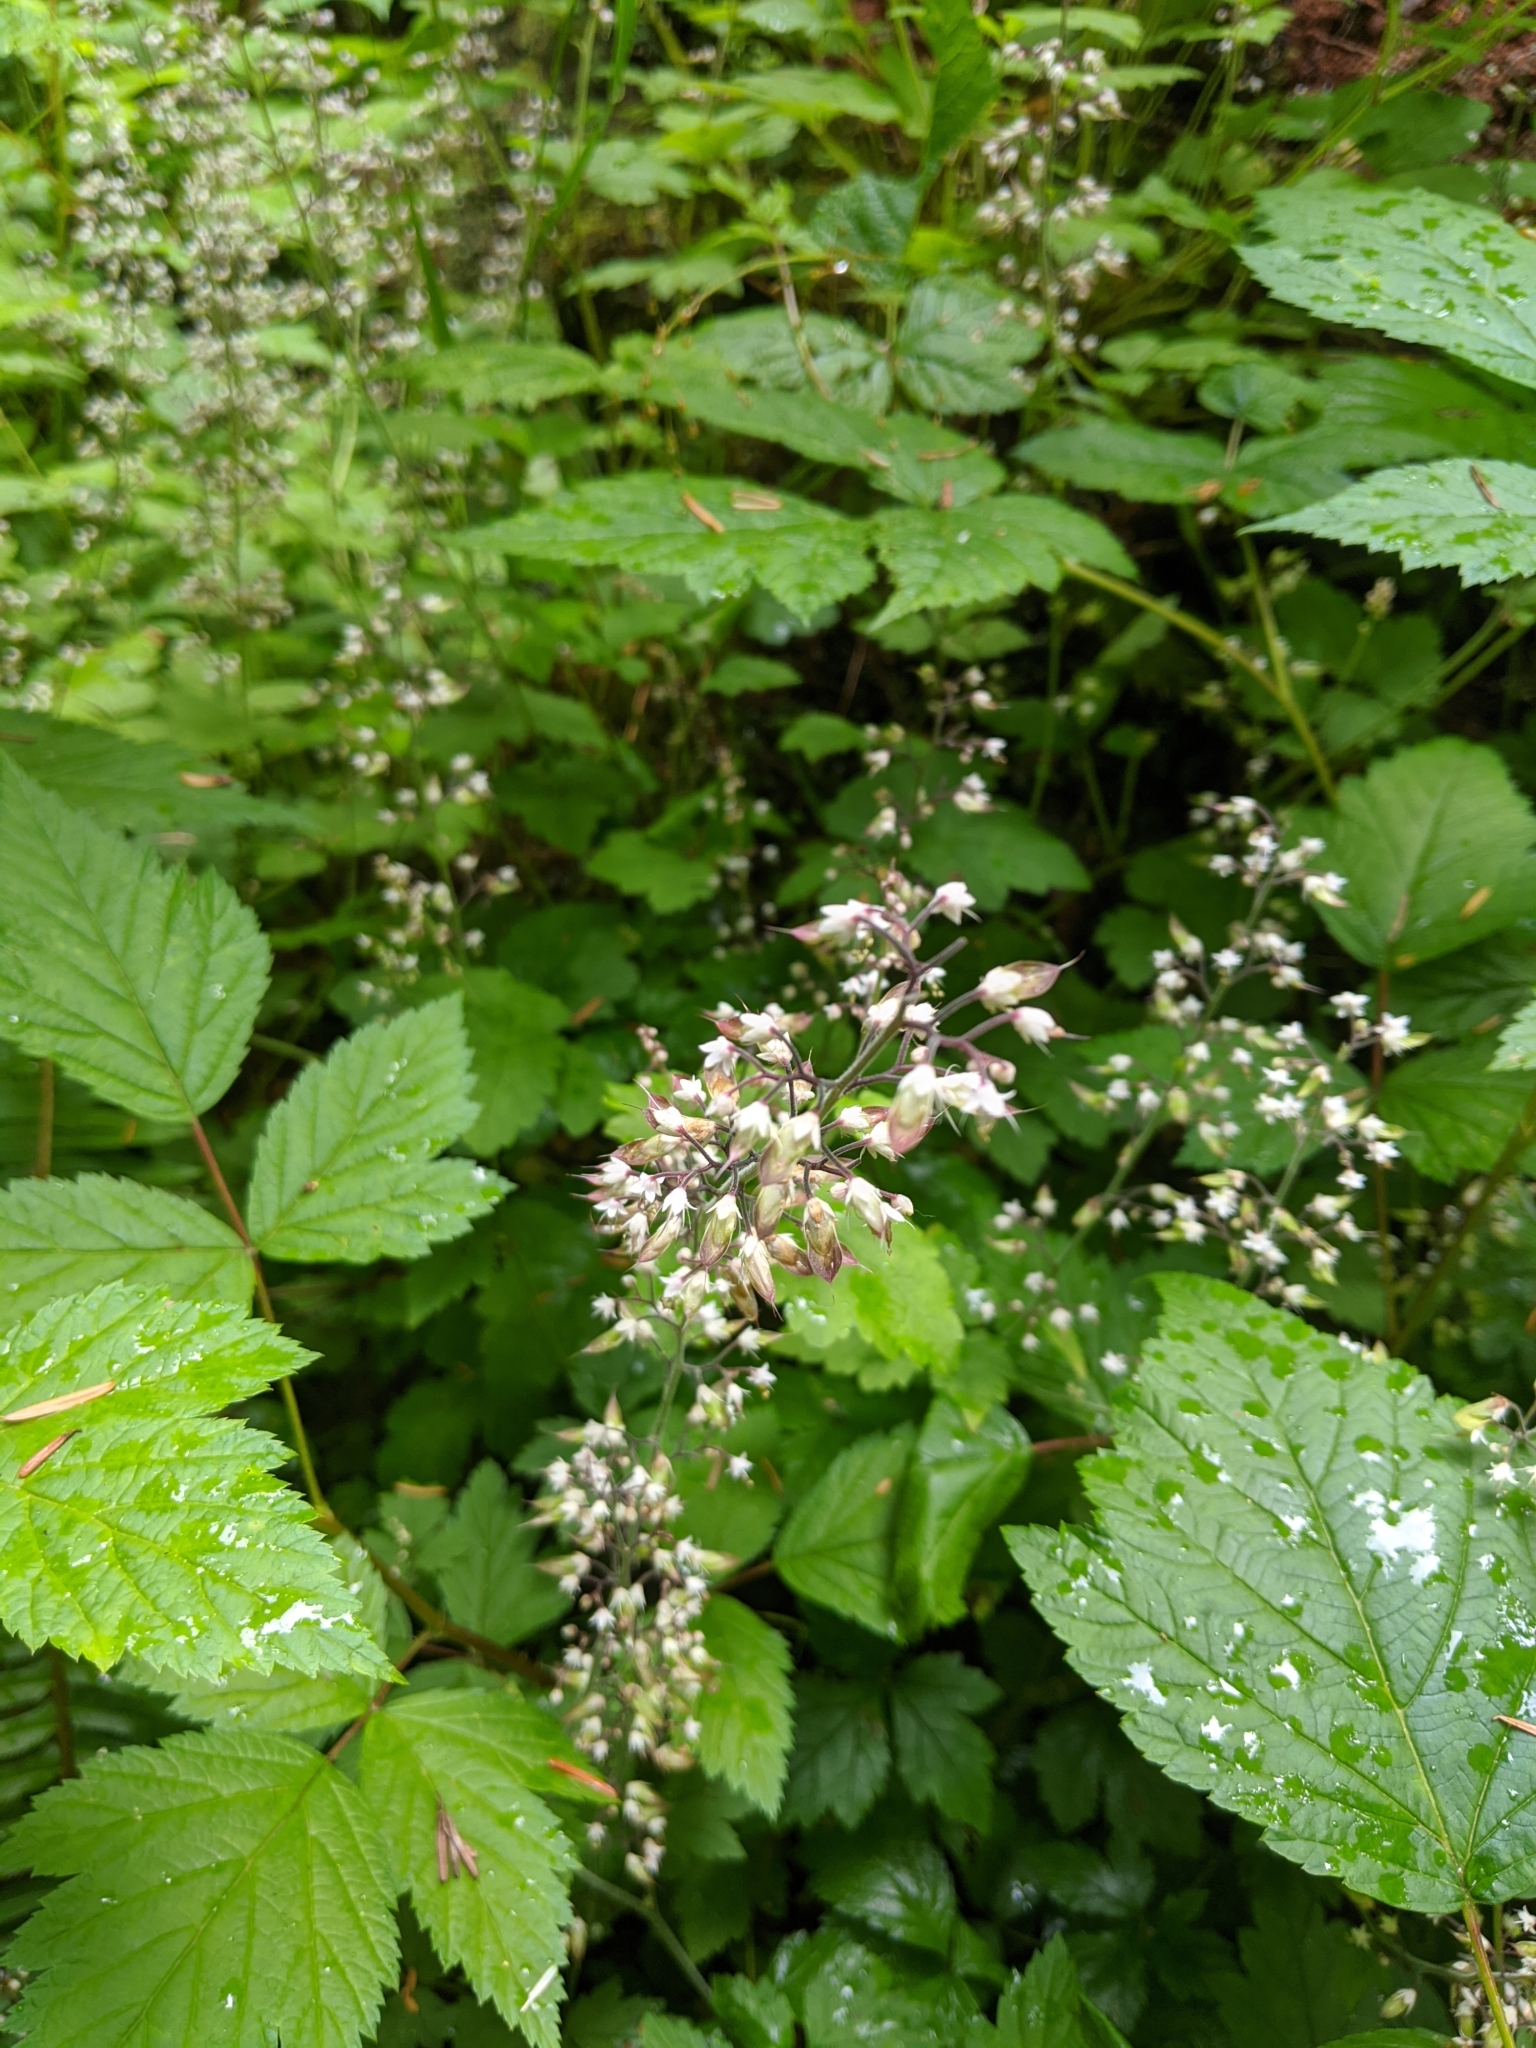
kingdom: Plantae
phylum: Tracheophyta
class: Magnoliopsida
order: Saxifragales
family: Saxifragaceae
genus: Tiarella
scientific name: Tiarella trifoliata
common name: Sugar-scoop
